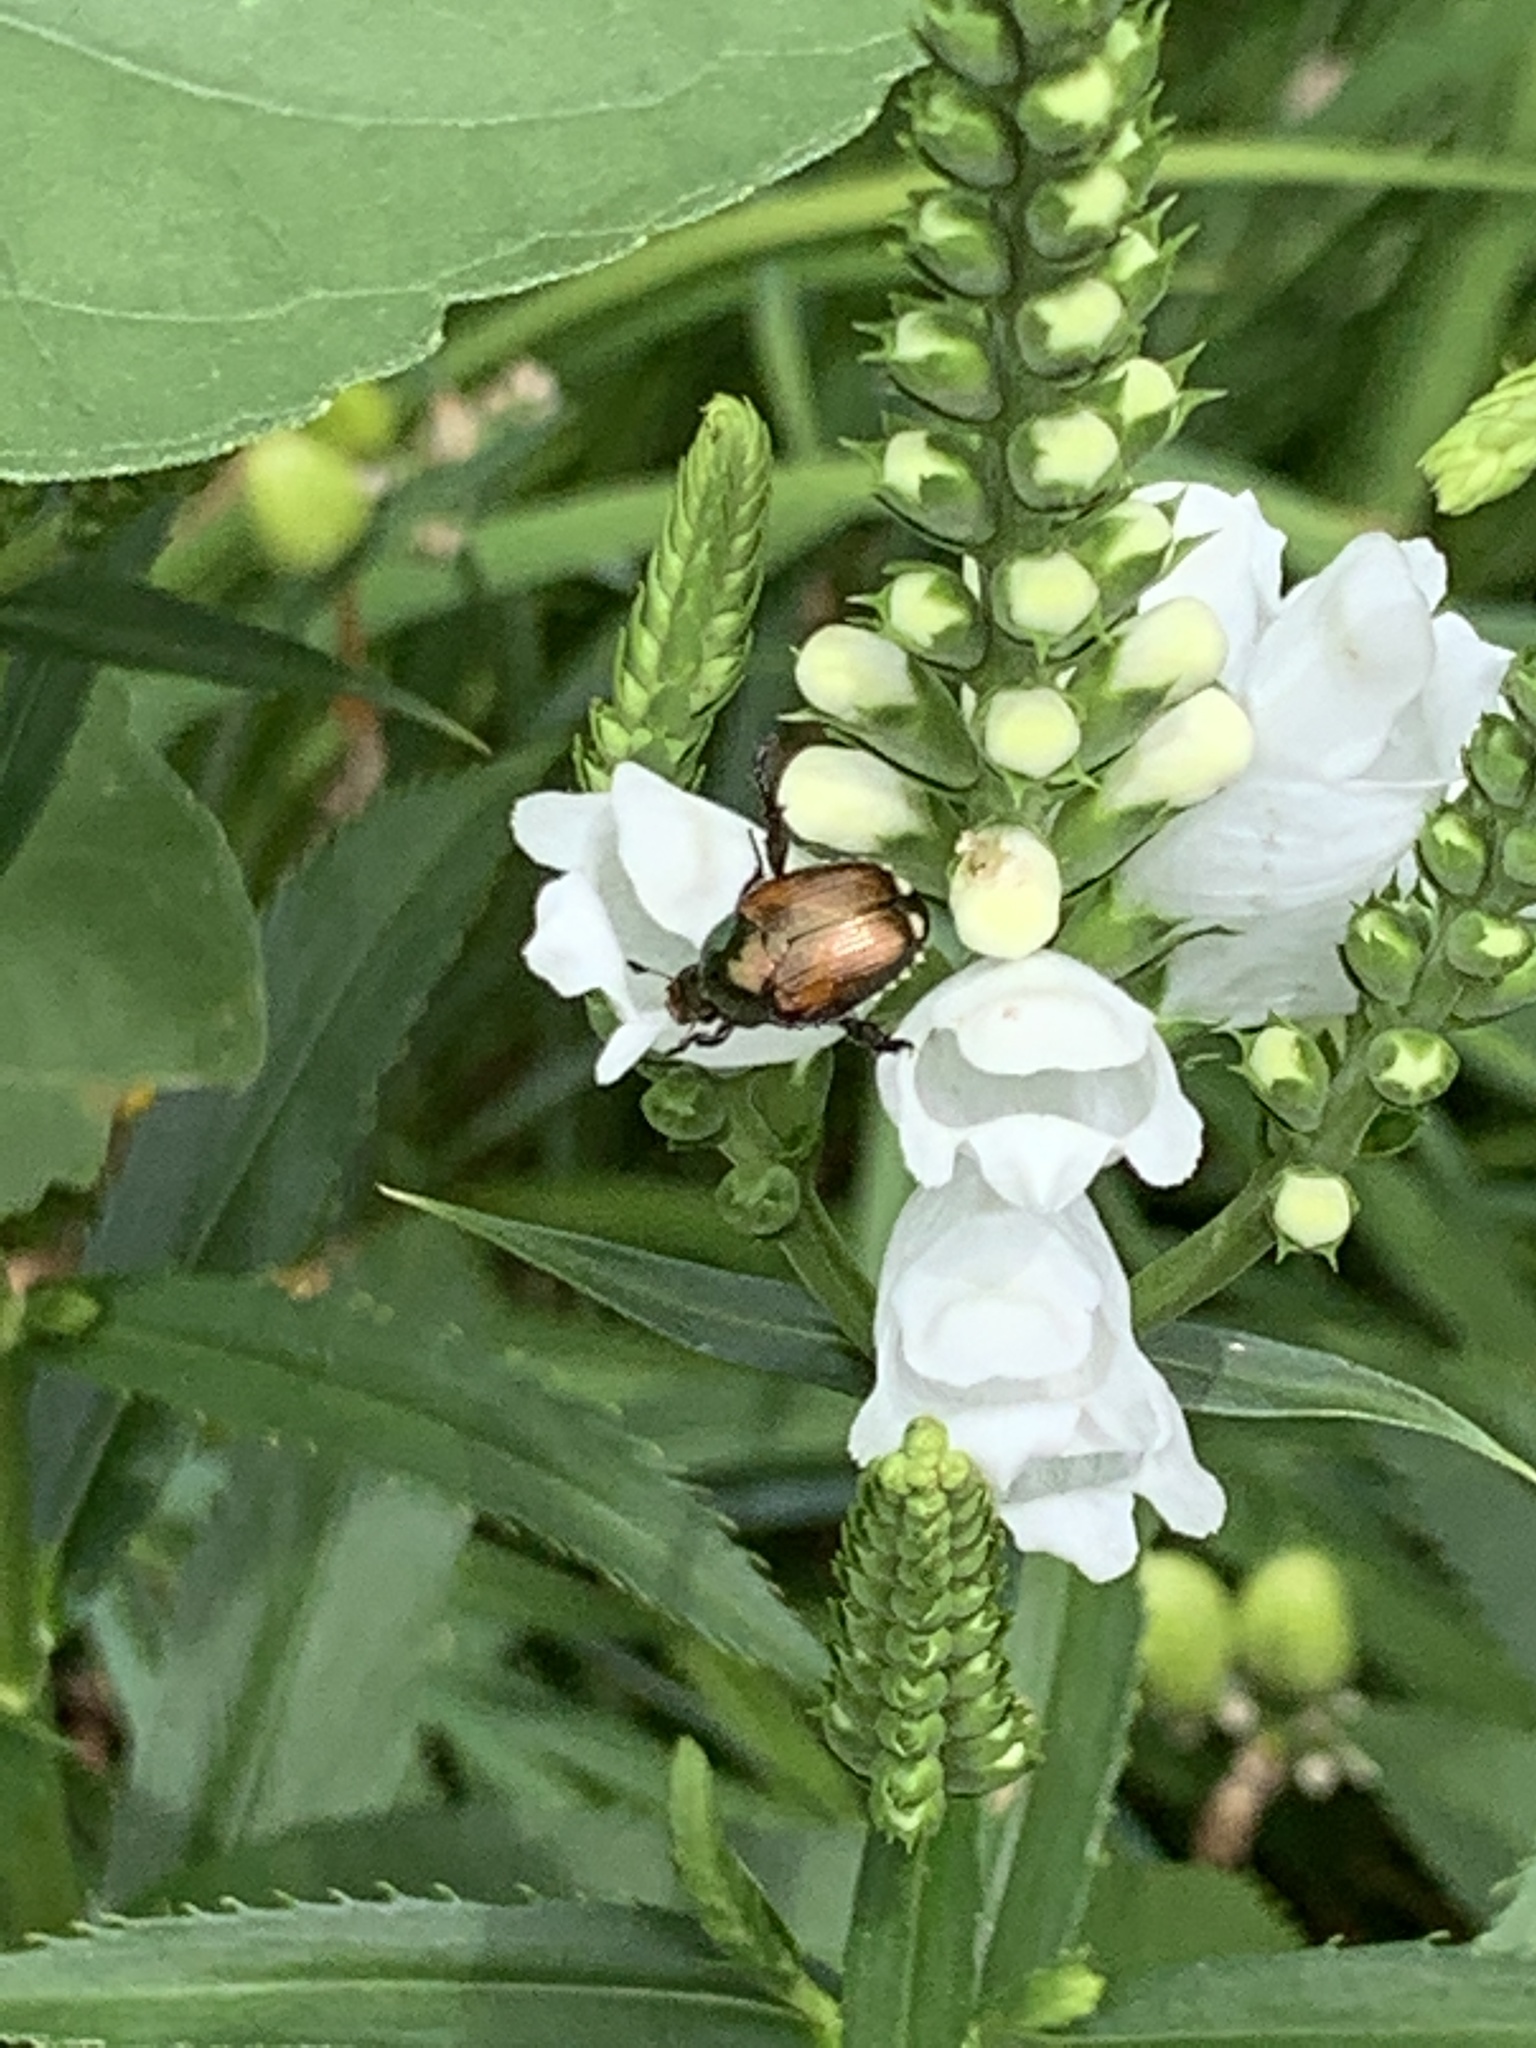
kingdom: Animalia
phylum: Arthropoda
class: Insecta
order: Coleoptera
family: Scarabaeidae
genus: Popillia
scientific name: Popillia japonica
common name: Japanese beetle
